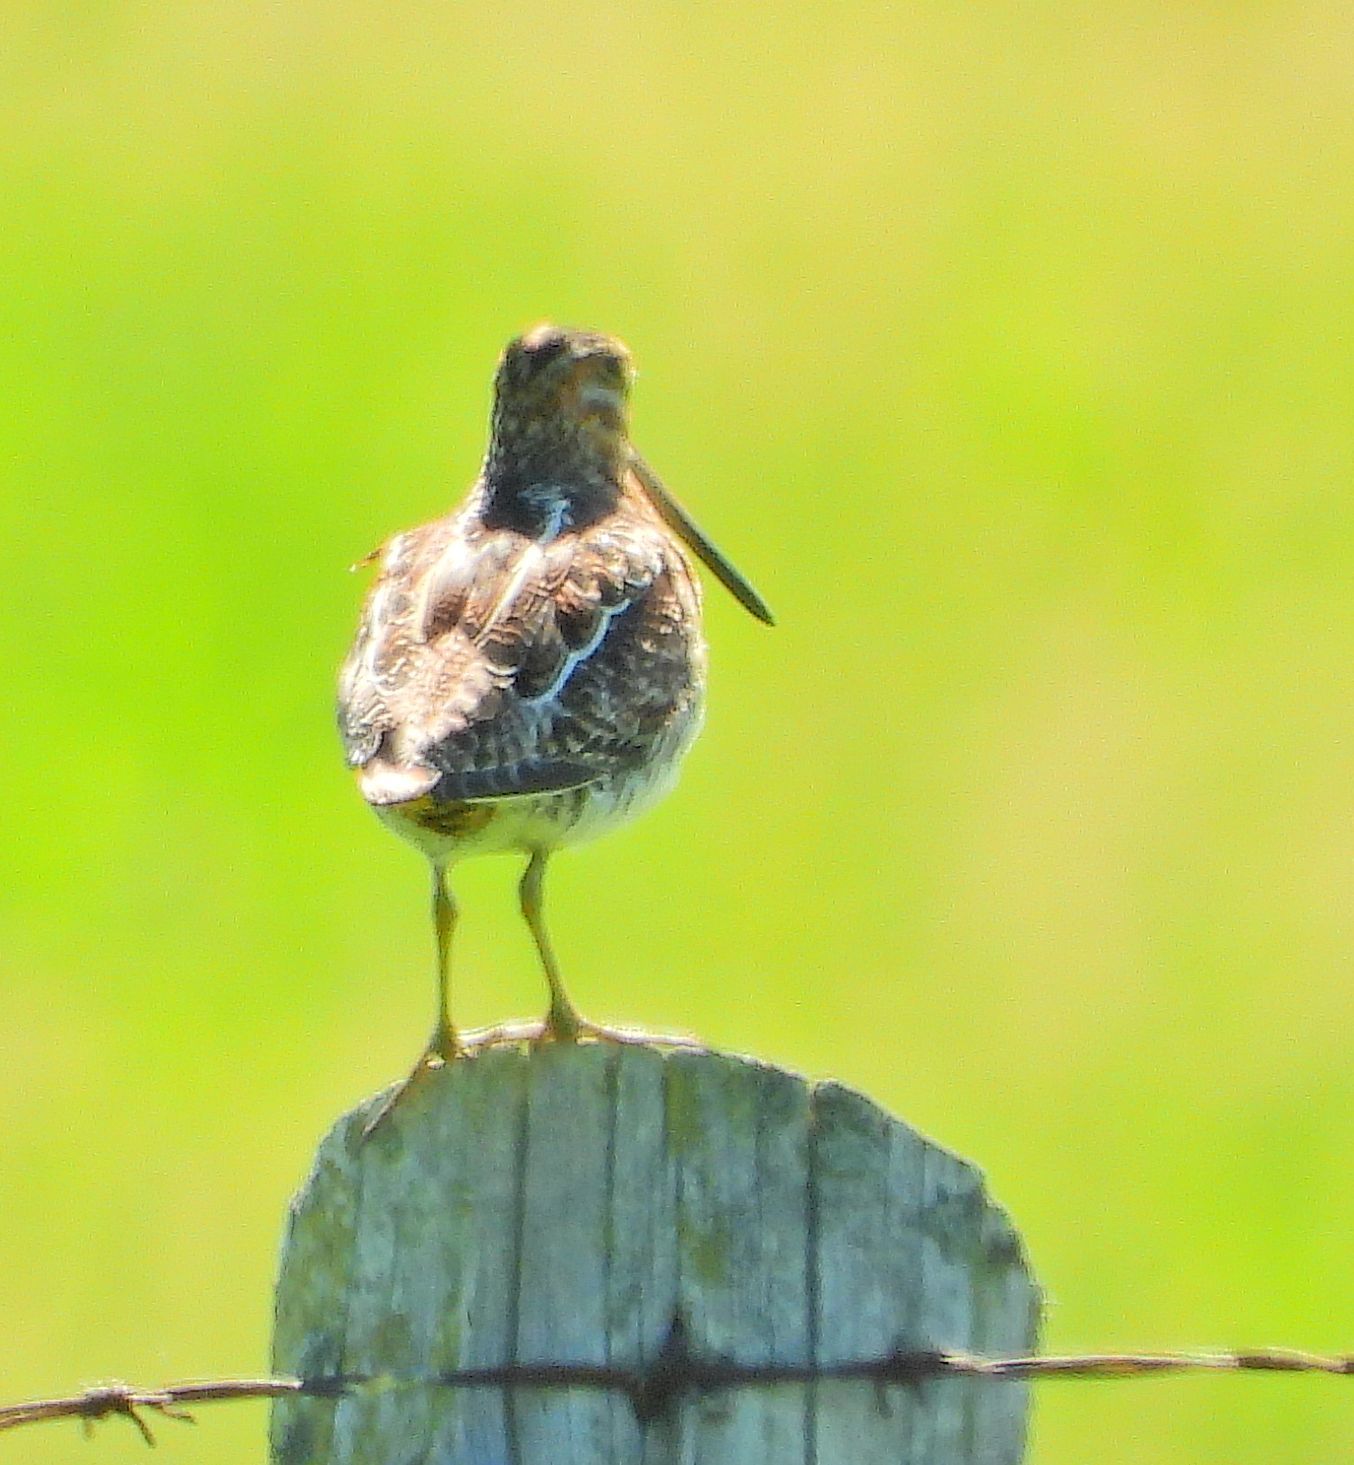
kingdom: Animalia
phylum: Chordata
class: Aves
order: Charadriiformes
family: Scolopacidae
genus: Gallinago
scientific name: Gallinago delicata
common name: Wilson's snipe
